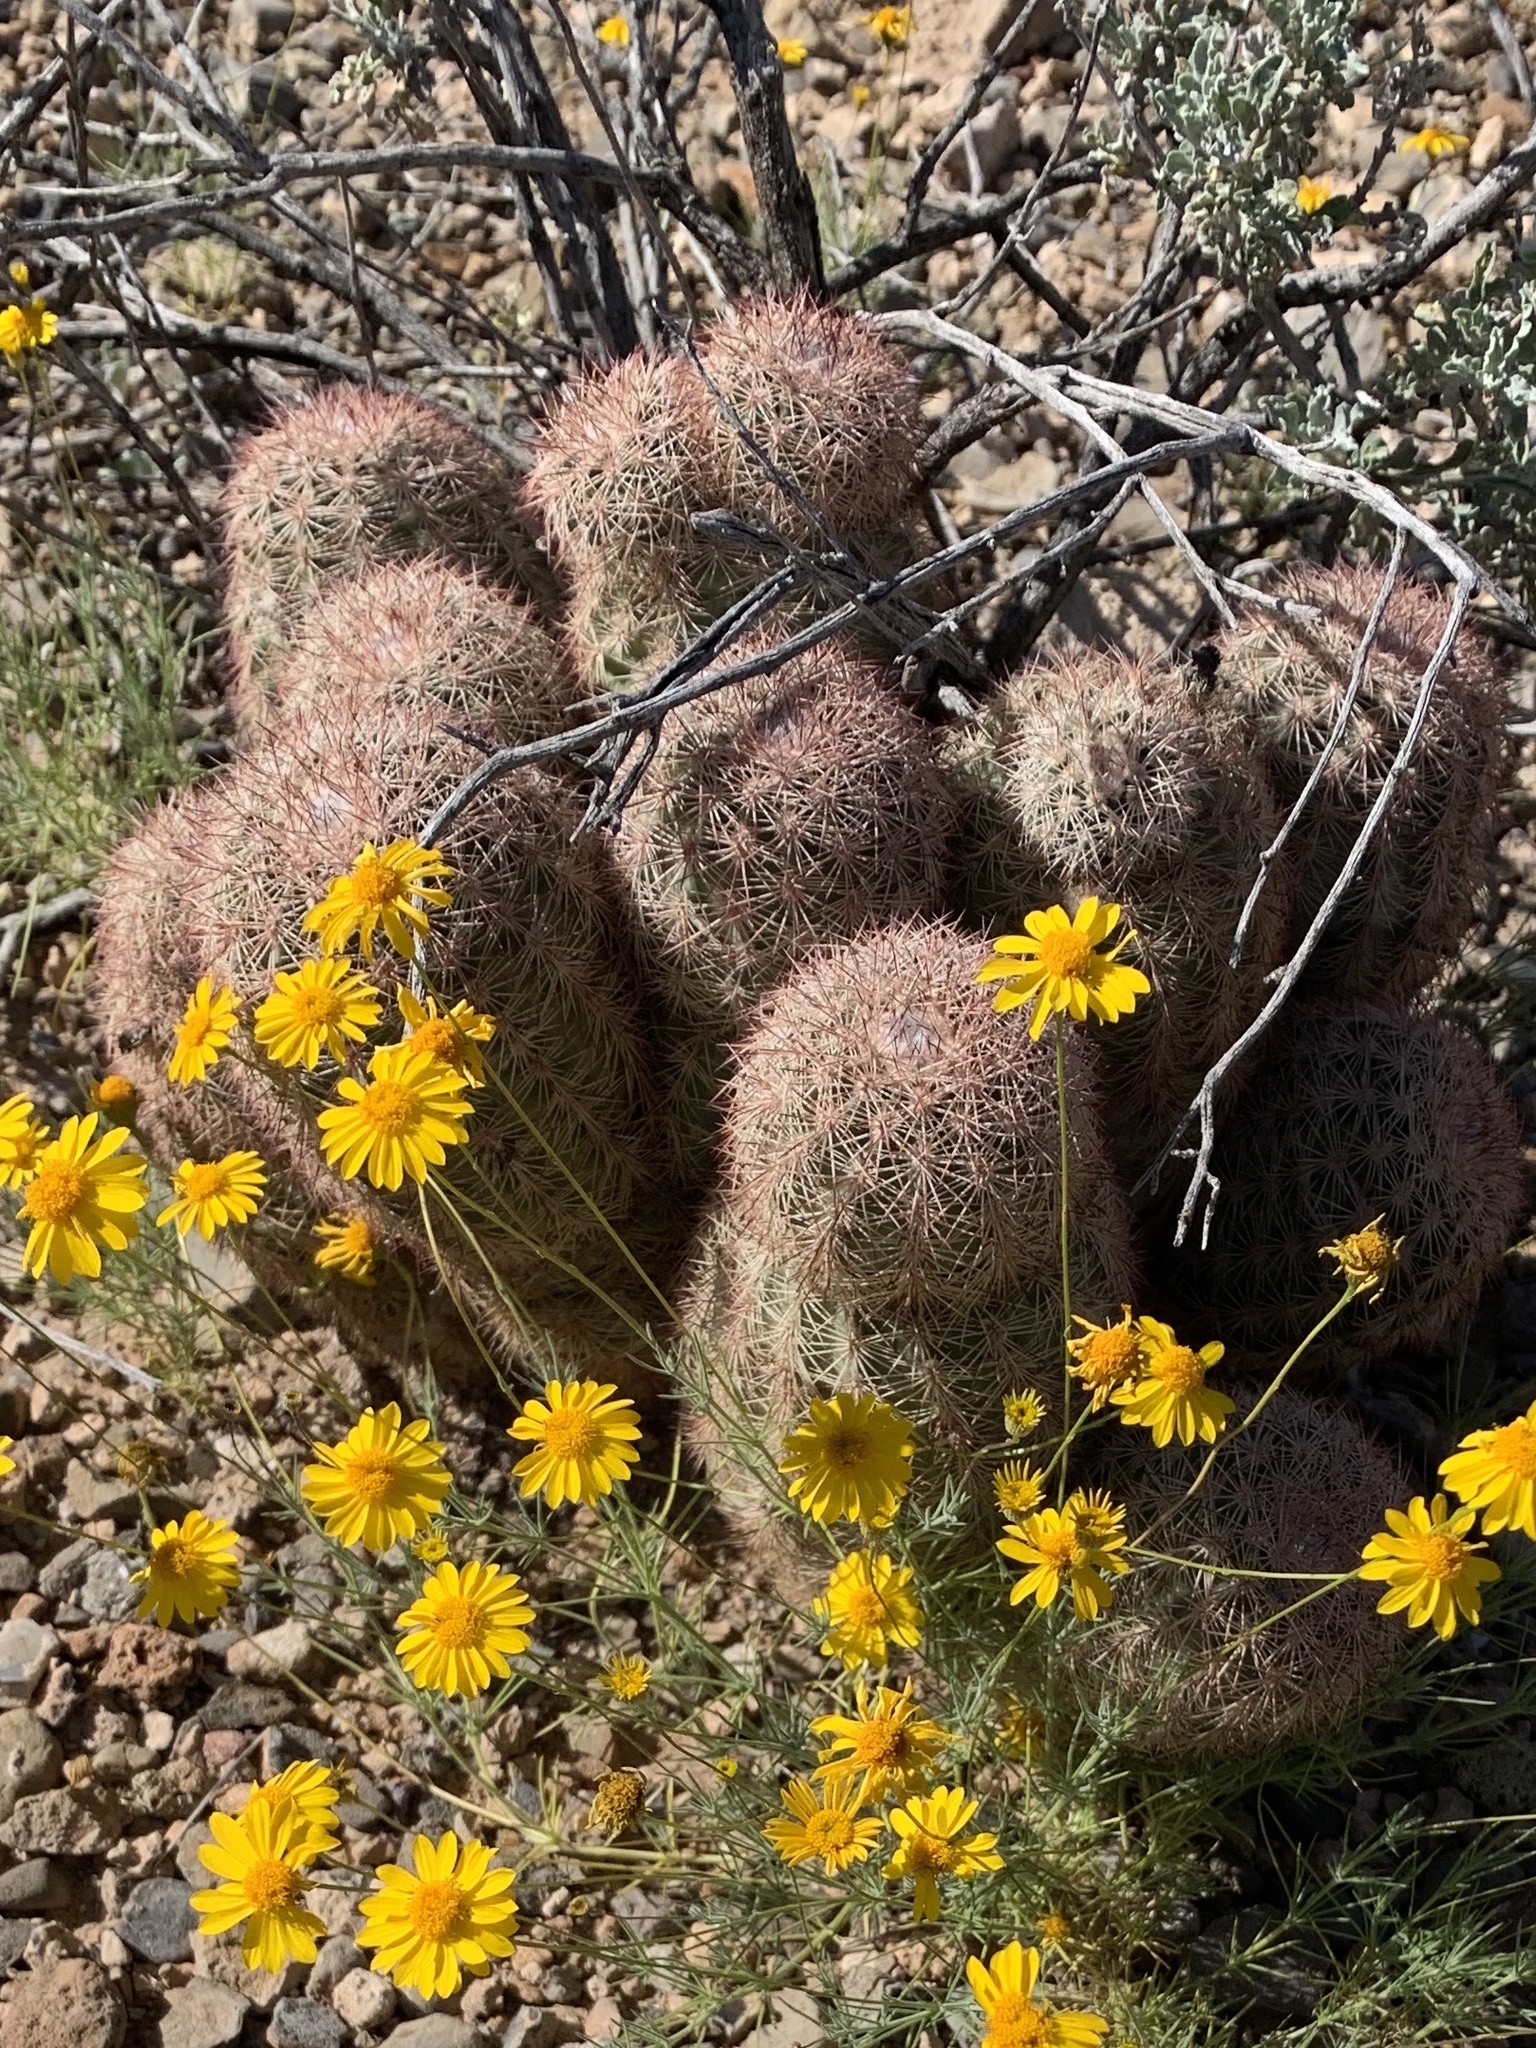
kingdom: Plantae
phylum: Tracheophyta
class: Magnoliopsida
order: Caryophyllales
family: Cactaceae
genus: Echinocereus
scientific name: Echinocereus dasyacanthus
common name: Spiny hedgehog cactus
